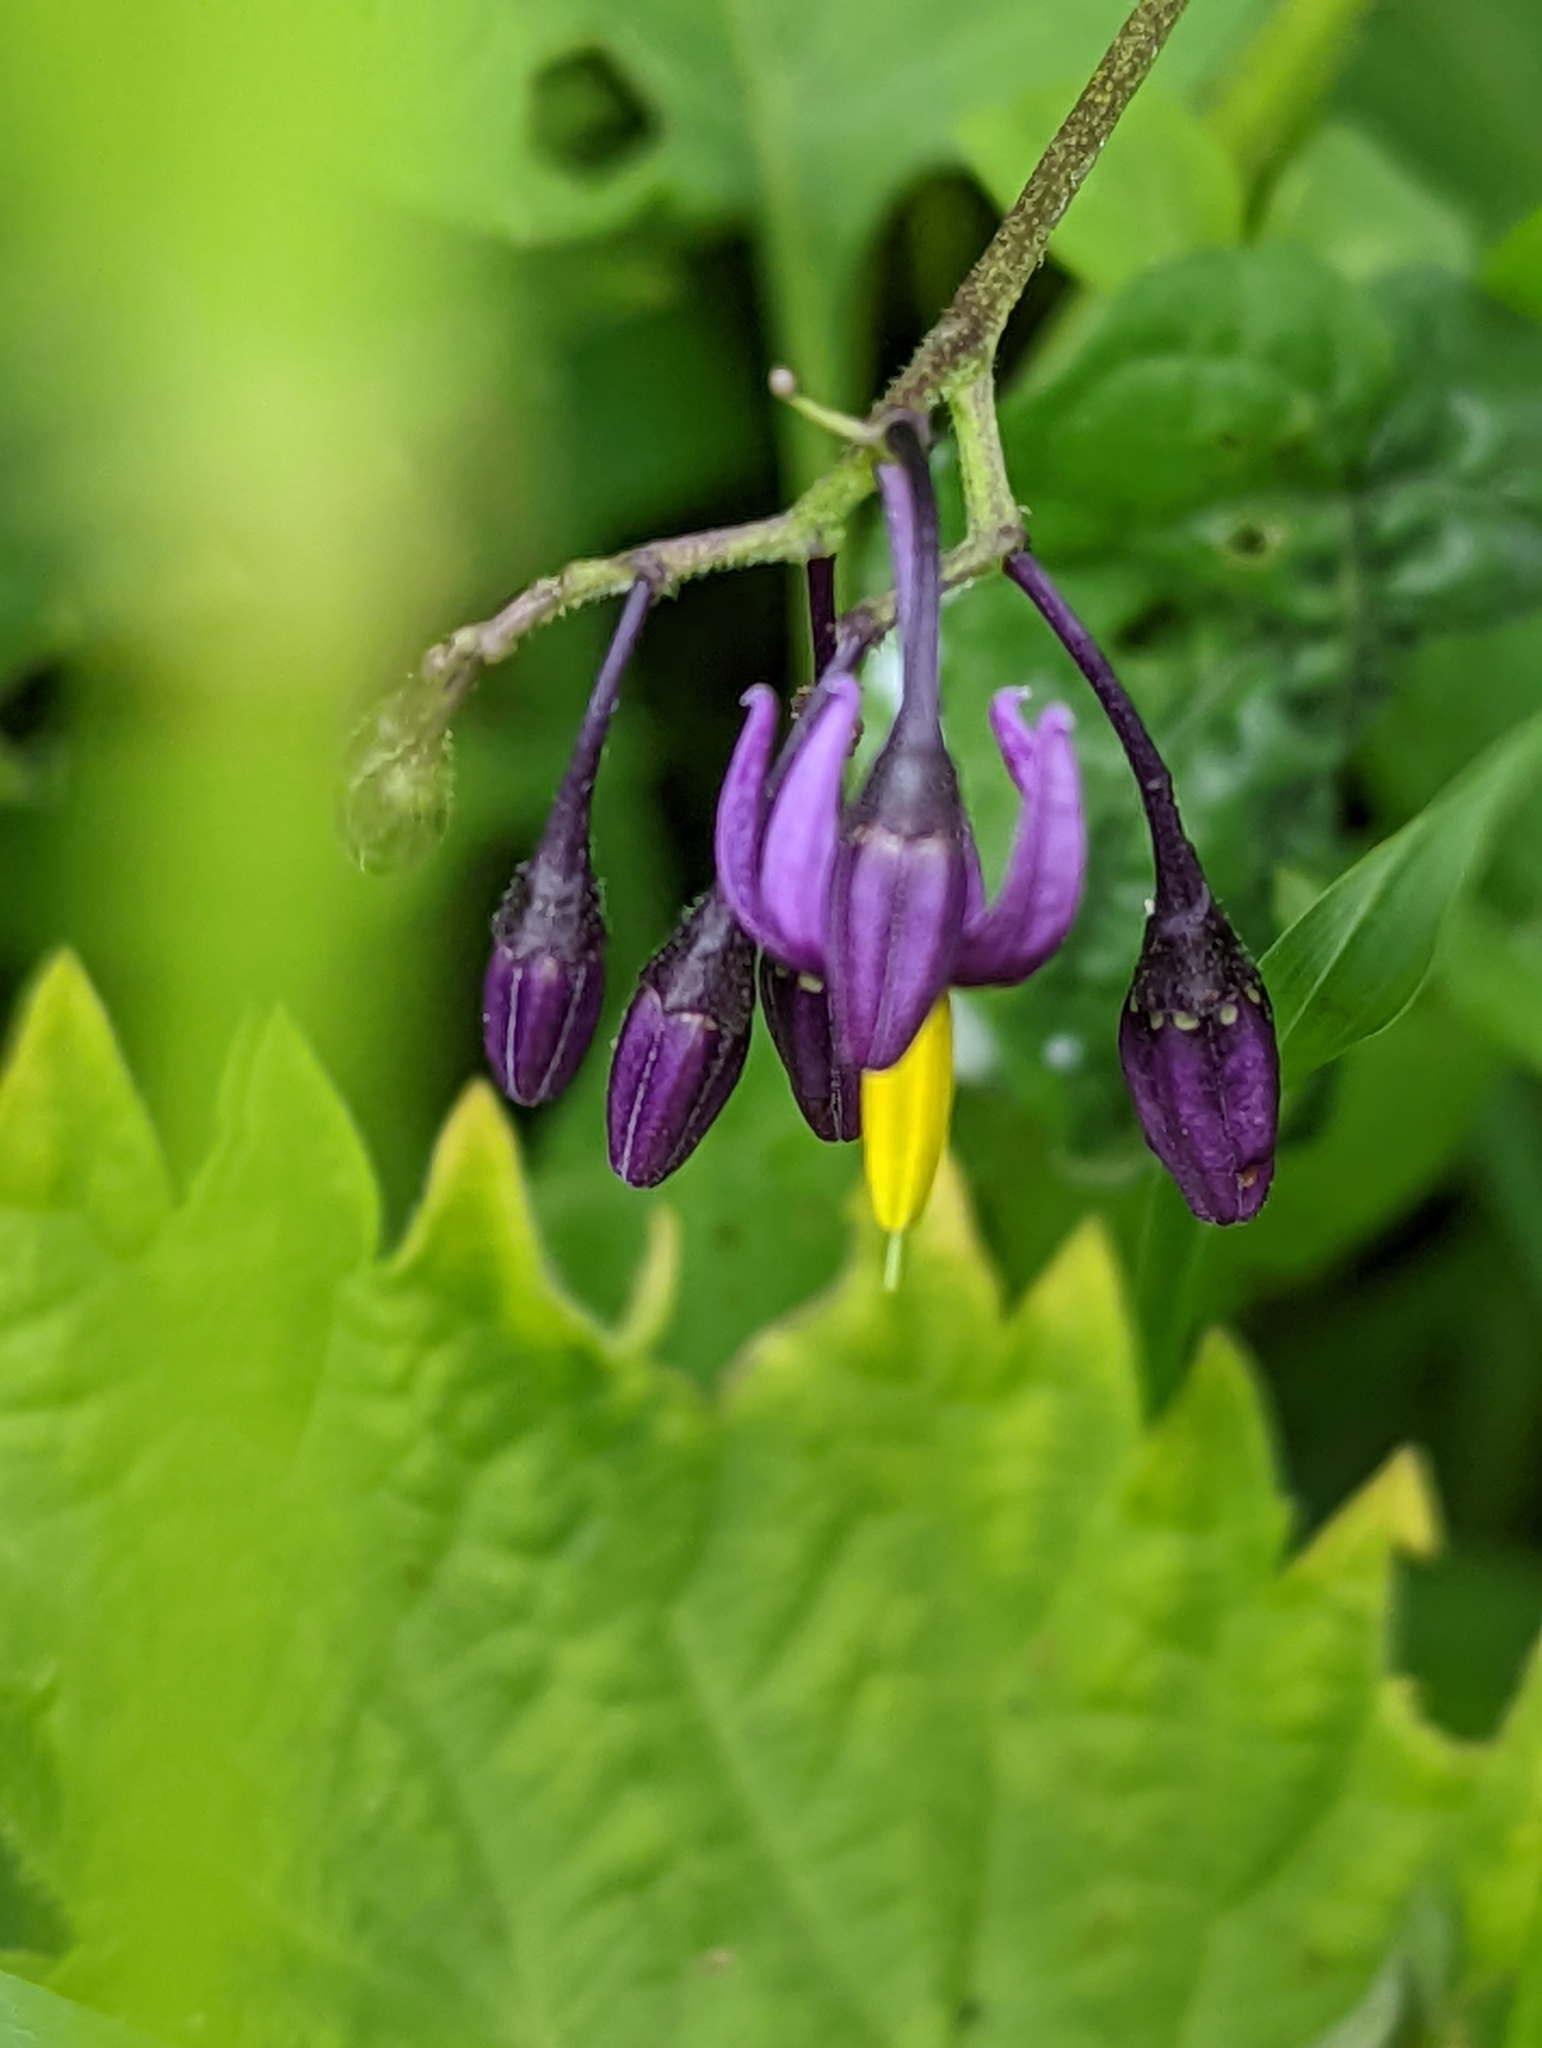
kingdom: Plantae
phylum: Tracheophyta
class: Magnoliopsida
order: Solanales
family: Solanaceae
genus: Solanum
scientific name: Solanum dulcamara
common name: Climbing nightshade
